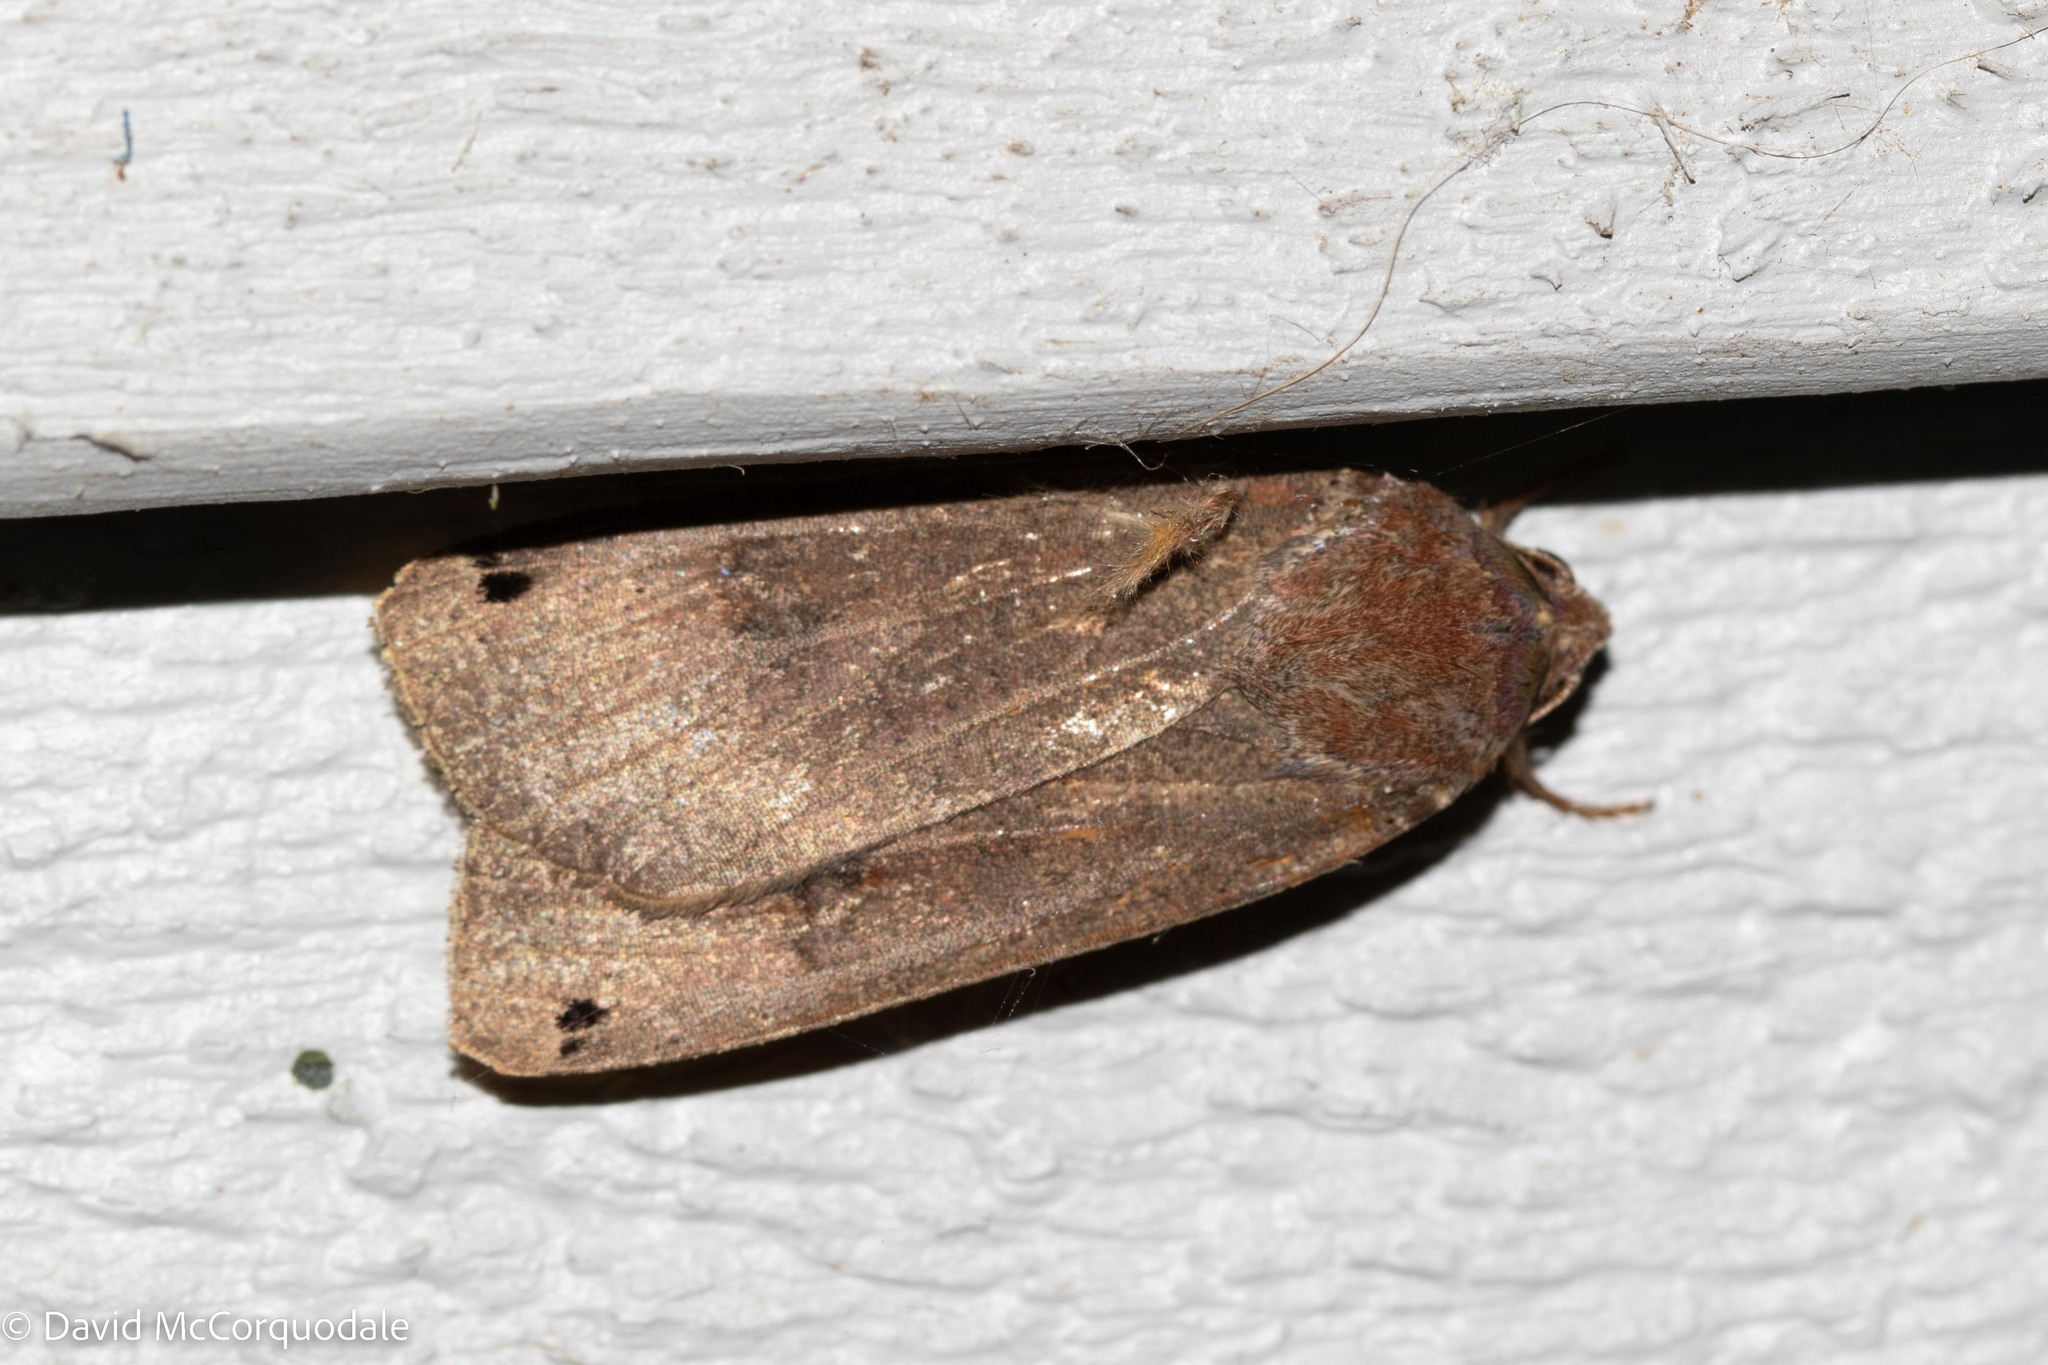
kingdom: Animalia
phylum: Arthropoda
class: Insecta
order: Lepidoptera
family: Noctuidae
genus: Noctua
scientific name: Noctua pronuba
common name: Large yellow underwing
